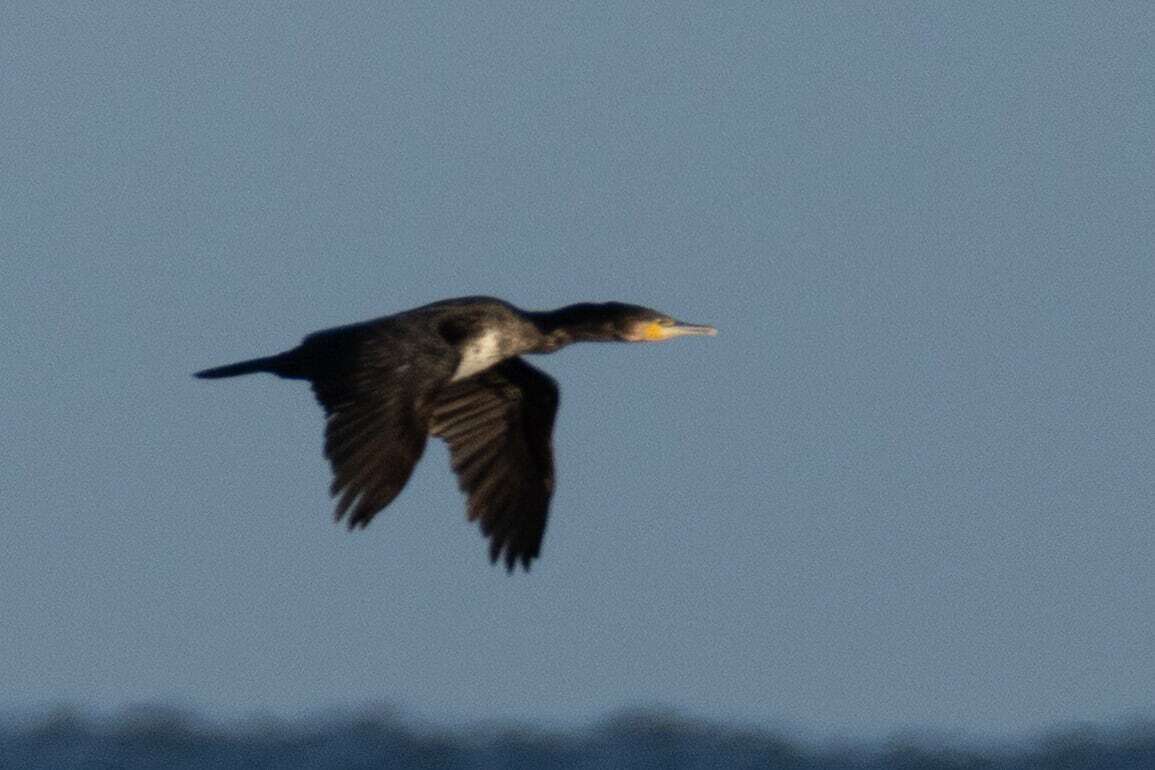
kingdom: Animalia
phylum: Chordata
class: Aves
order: Suliformes
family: Phalacrocoracidae
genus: Phalacrocorax
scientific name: Phalacrocorax carbo
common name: Great cormorant
